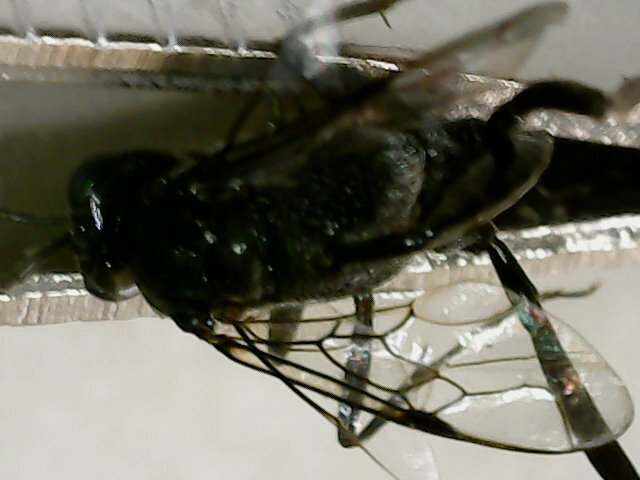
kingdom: Animalia
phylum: Arthropoda
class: Insecta
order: Hymenoptera
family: Evaniidae
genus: Evania
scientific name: Evania appendigaster
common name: Ensign wasp
